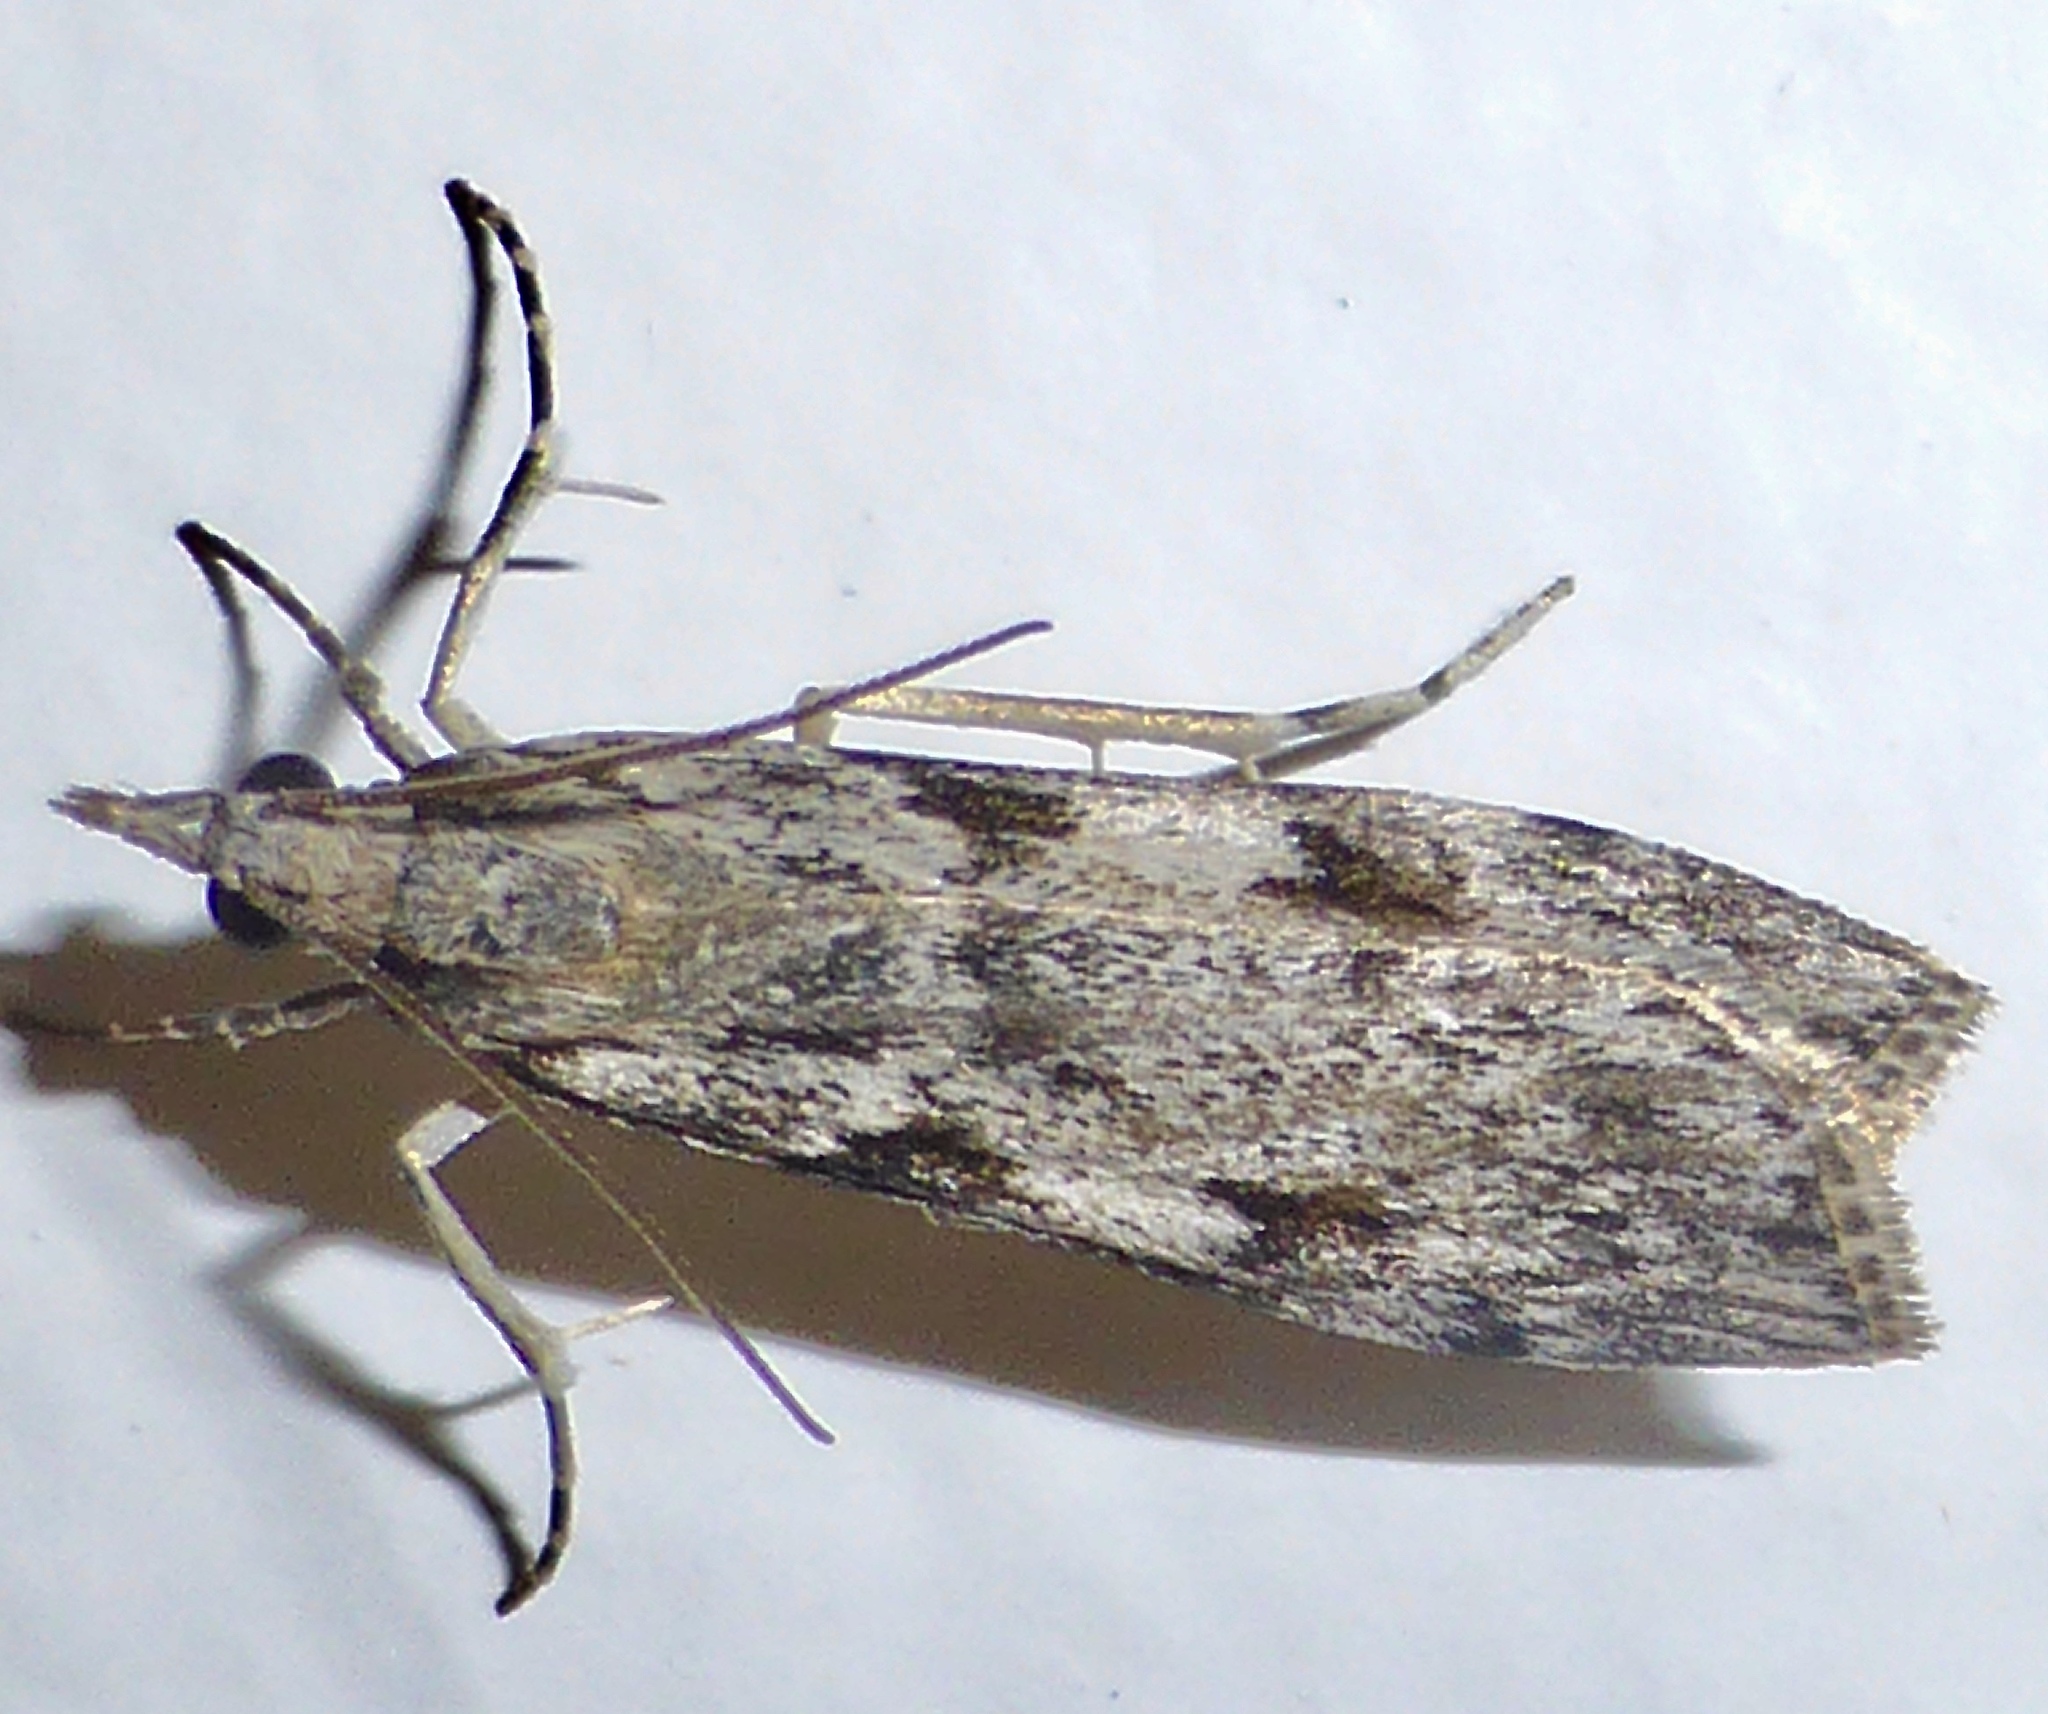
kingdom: Animalia
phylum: Arthropoda
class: Insecta
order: Lepidoptera
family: Crambidae
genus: Scoparia
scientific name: Scoparia halopis
